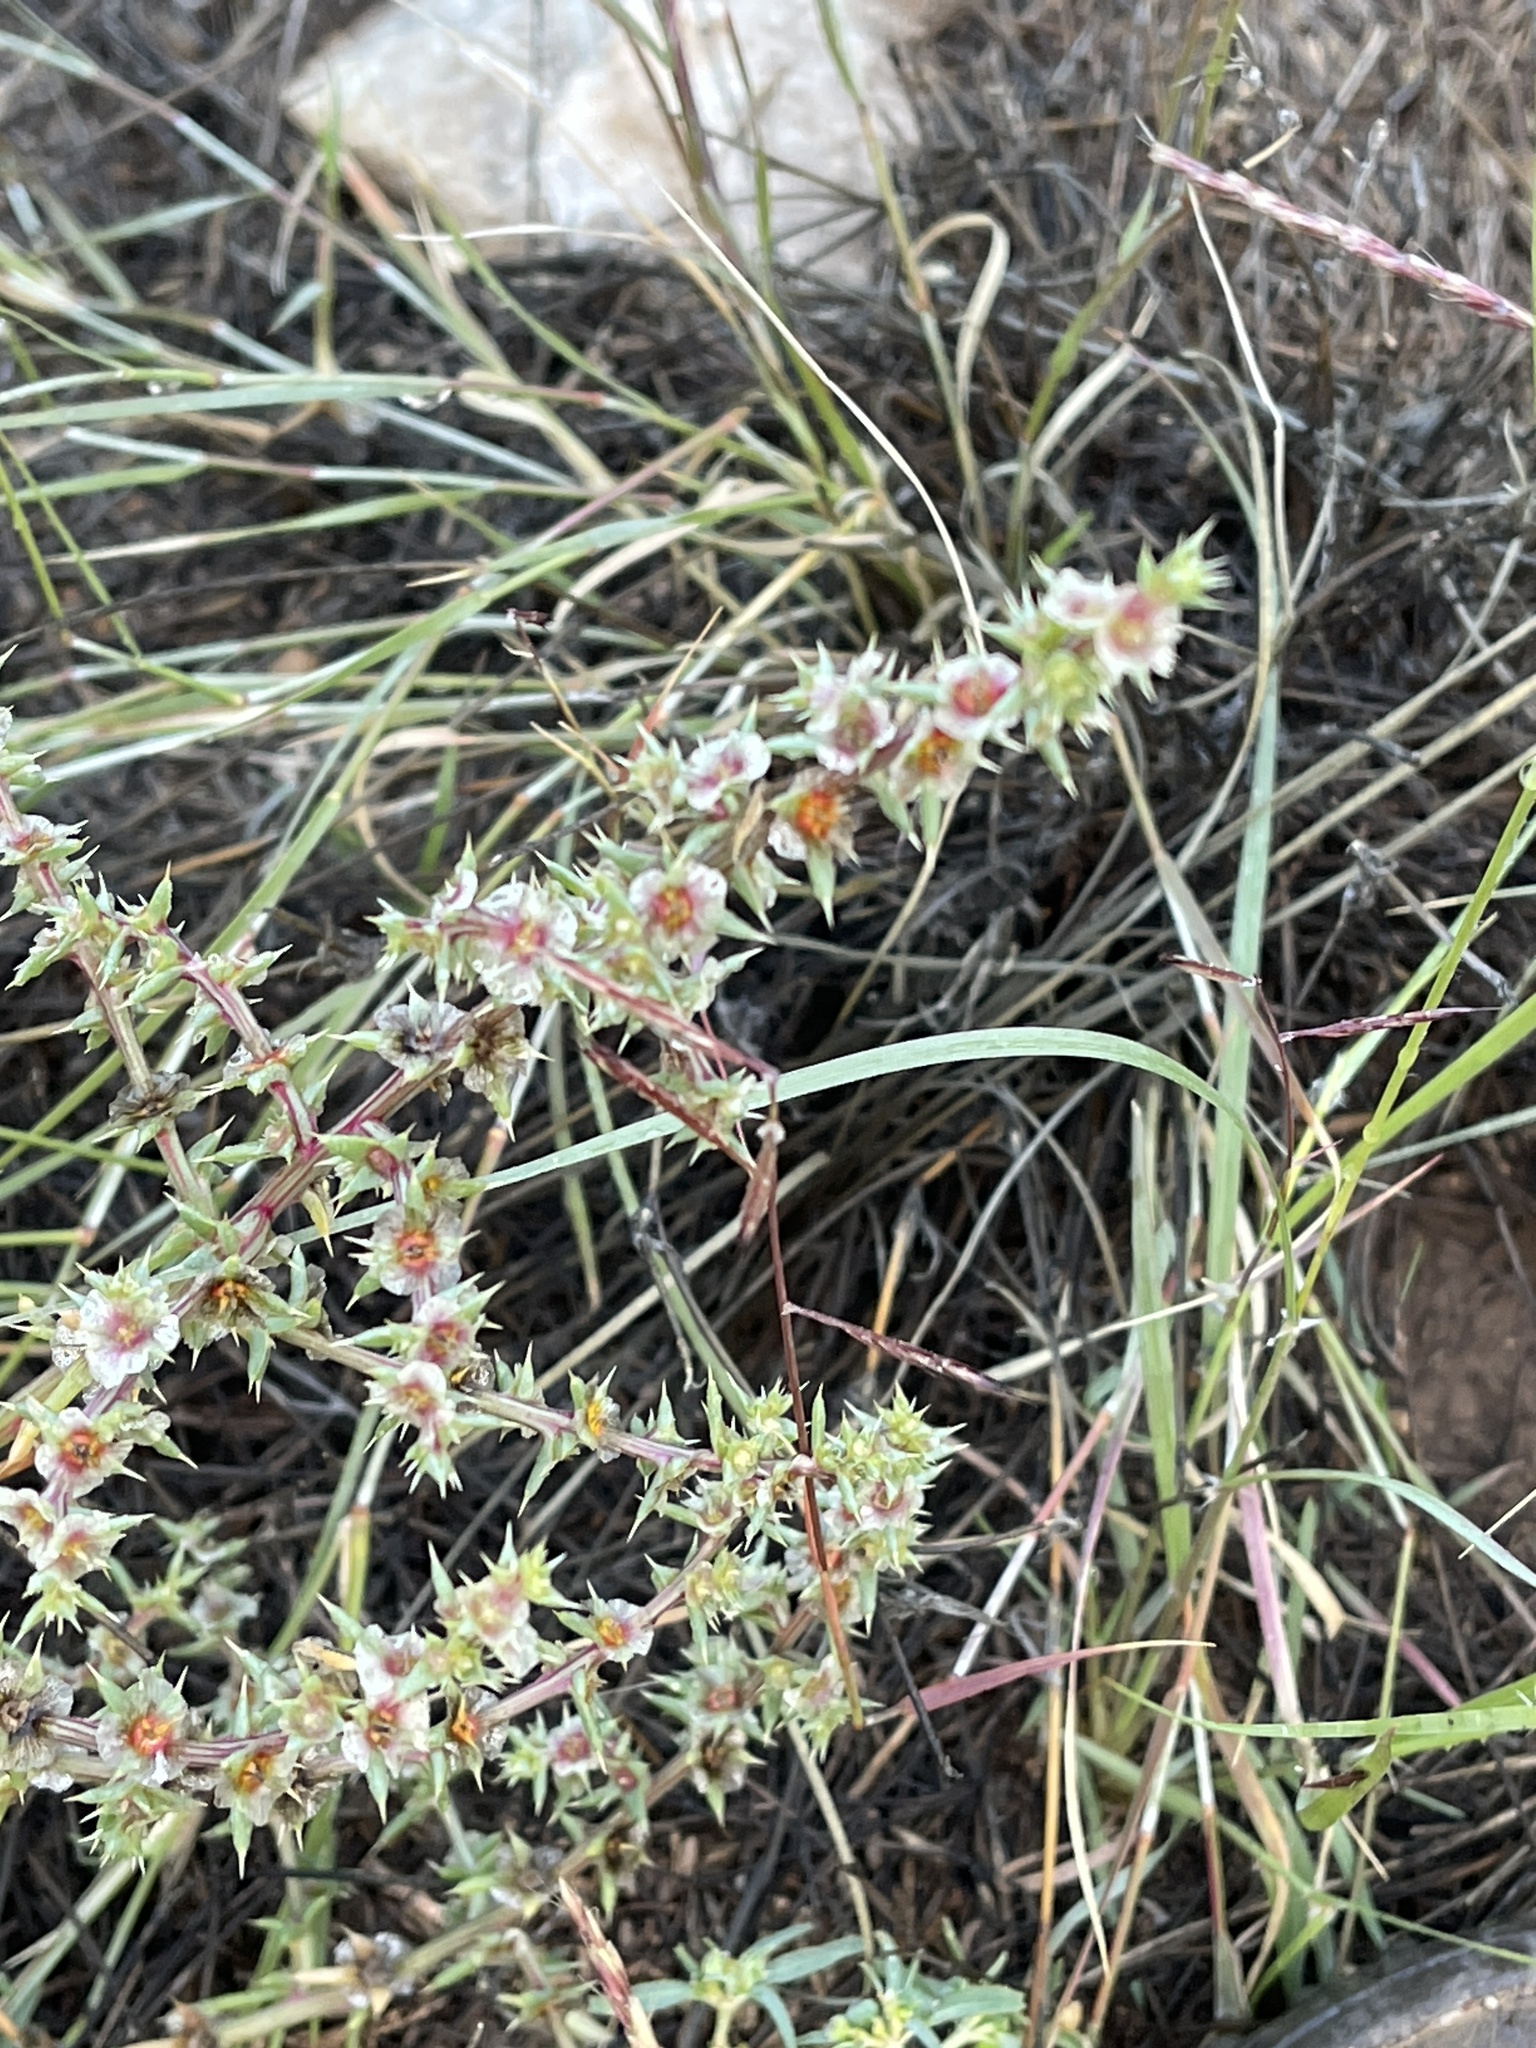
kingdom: Plantae
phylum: Tracheophyta
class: Magnoliopsida
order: Caryophyllales
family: Amaranthaceae
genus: Salsola
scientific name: Salsola tragus
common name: Prickly russian thistle
